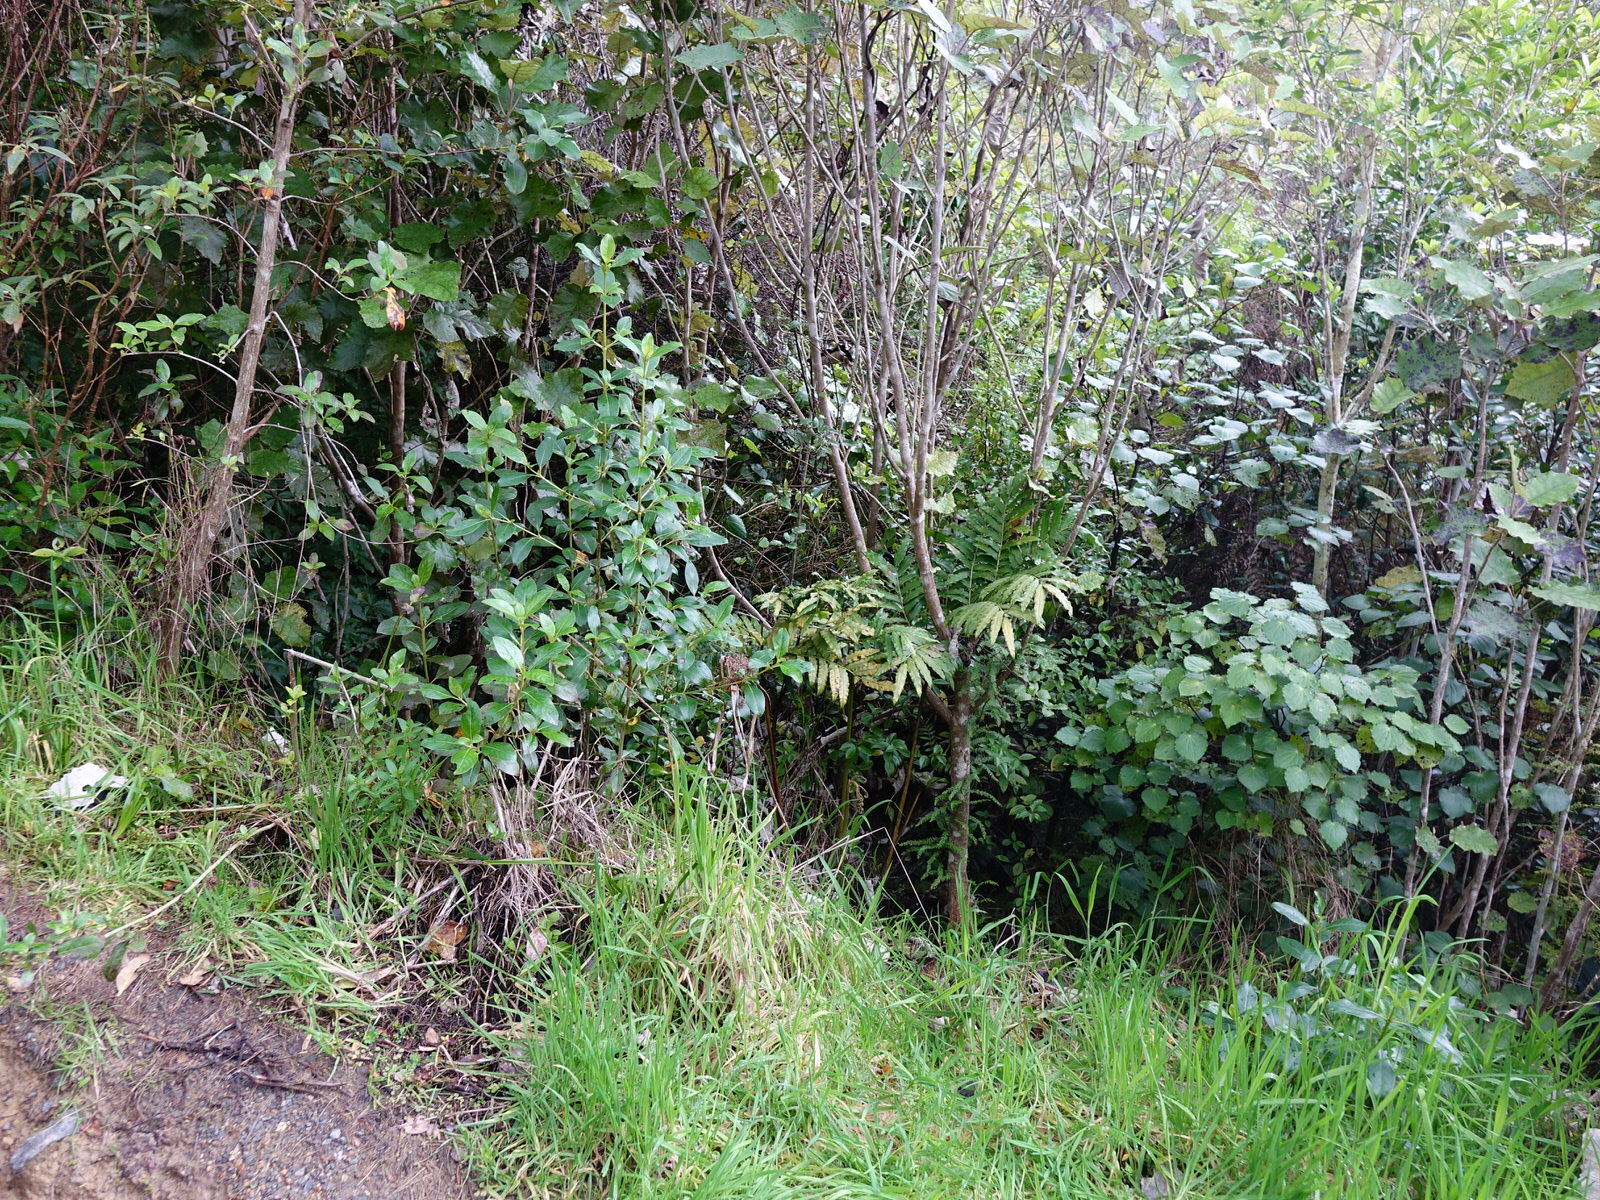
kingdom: Plantae
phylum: Tracheophyta
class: Polypodiopsida
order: Marattiales
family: Marattiaceae
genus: Ptisana
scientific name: Ptisana salicina
